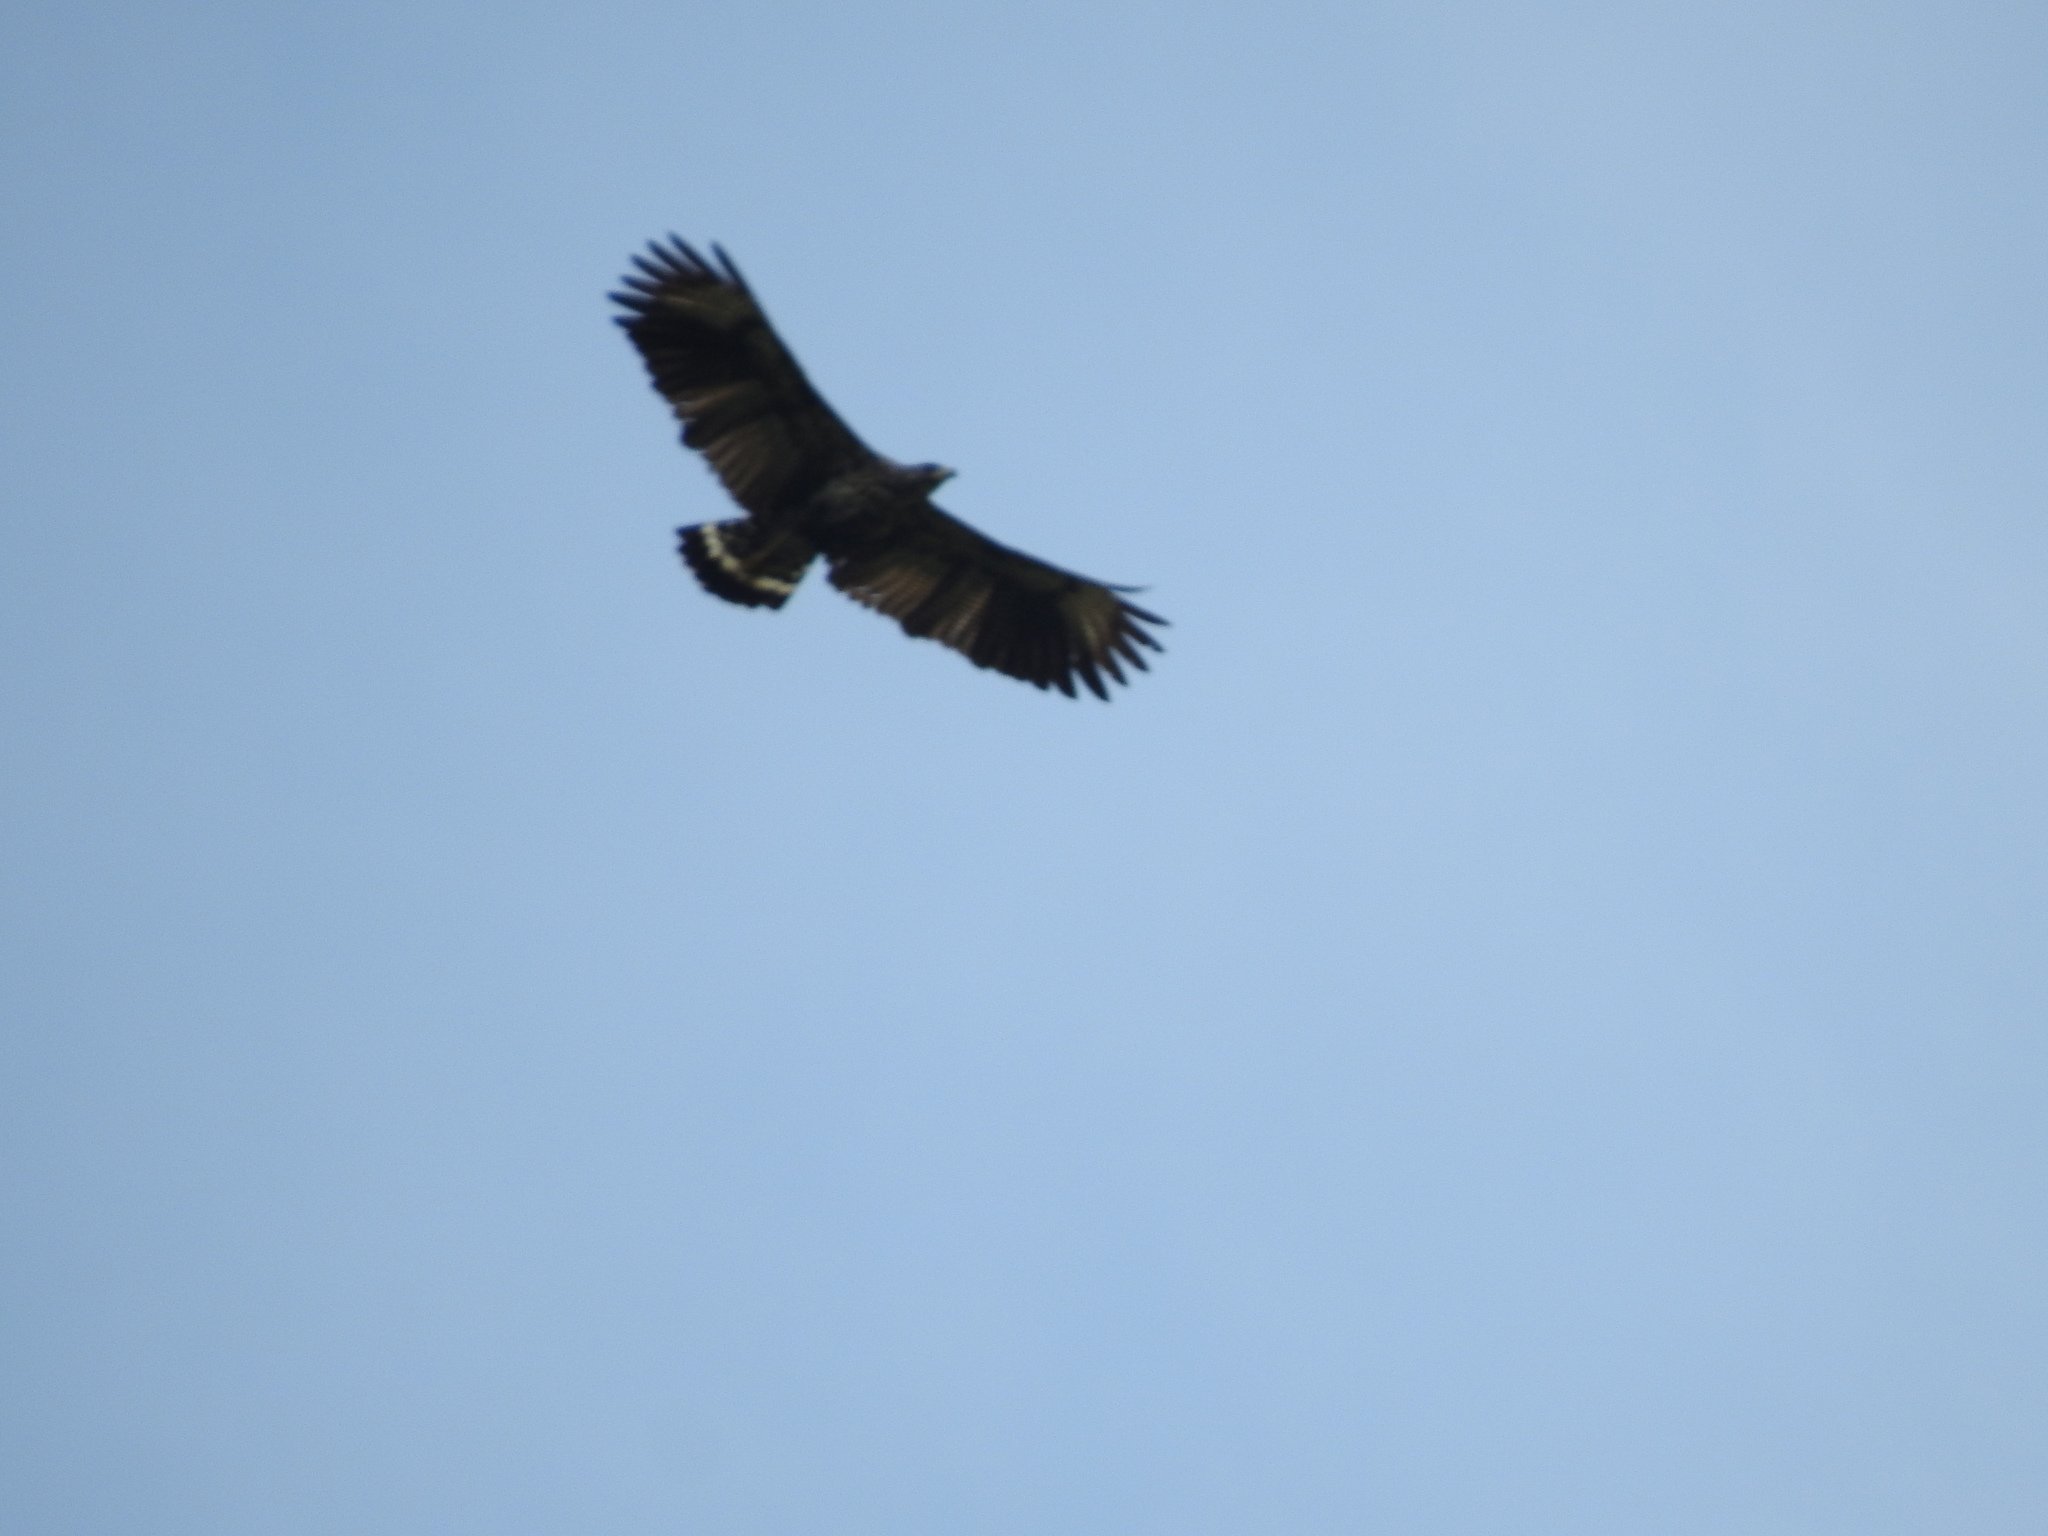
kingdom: Animalia
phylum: Chordata
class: Aves
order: Accipitriformes
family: Accipitridae
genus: Buteogallus
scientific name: Buteogallus anthracinus
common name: Common black hawk
